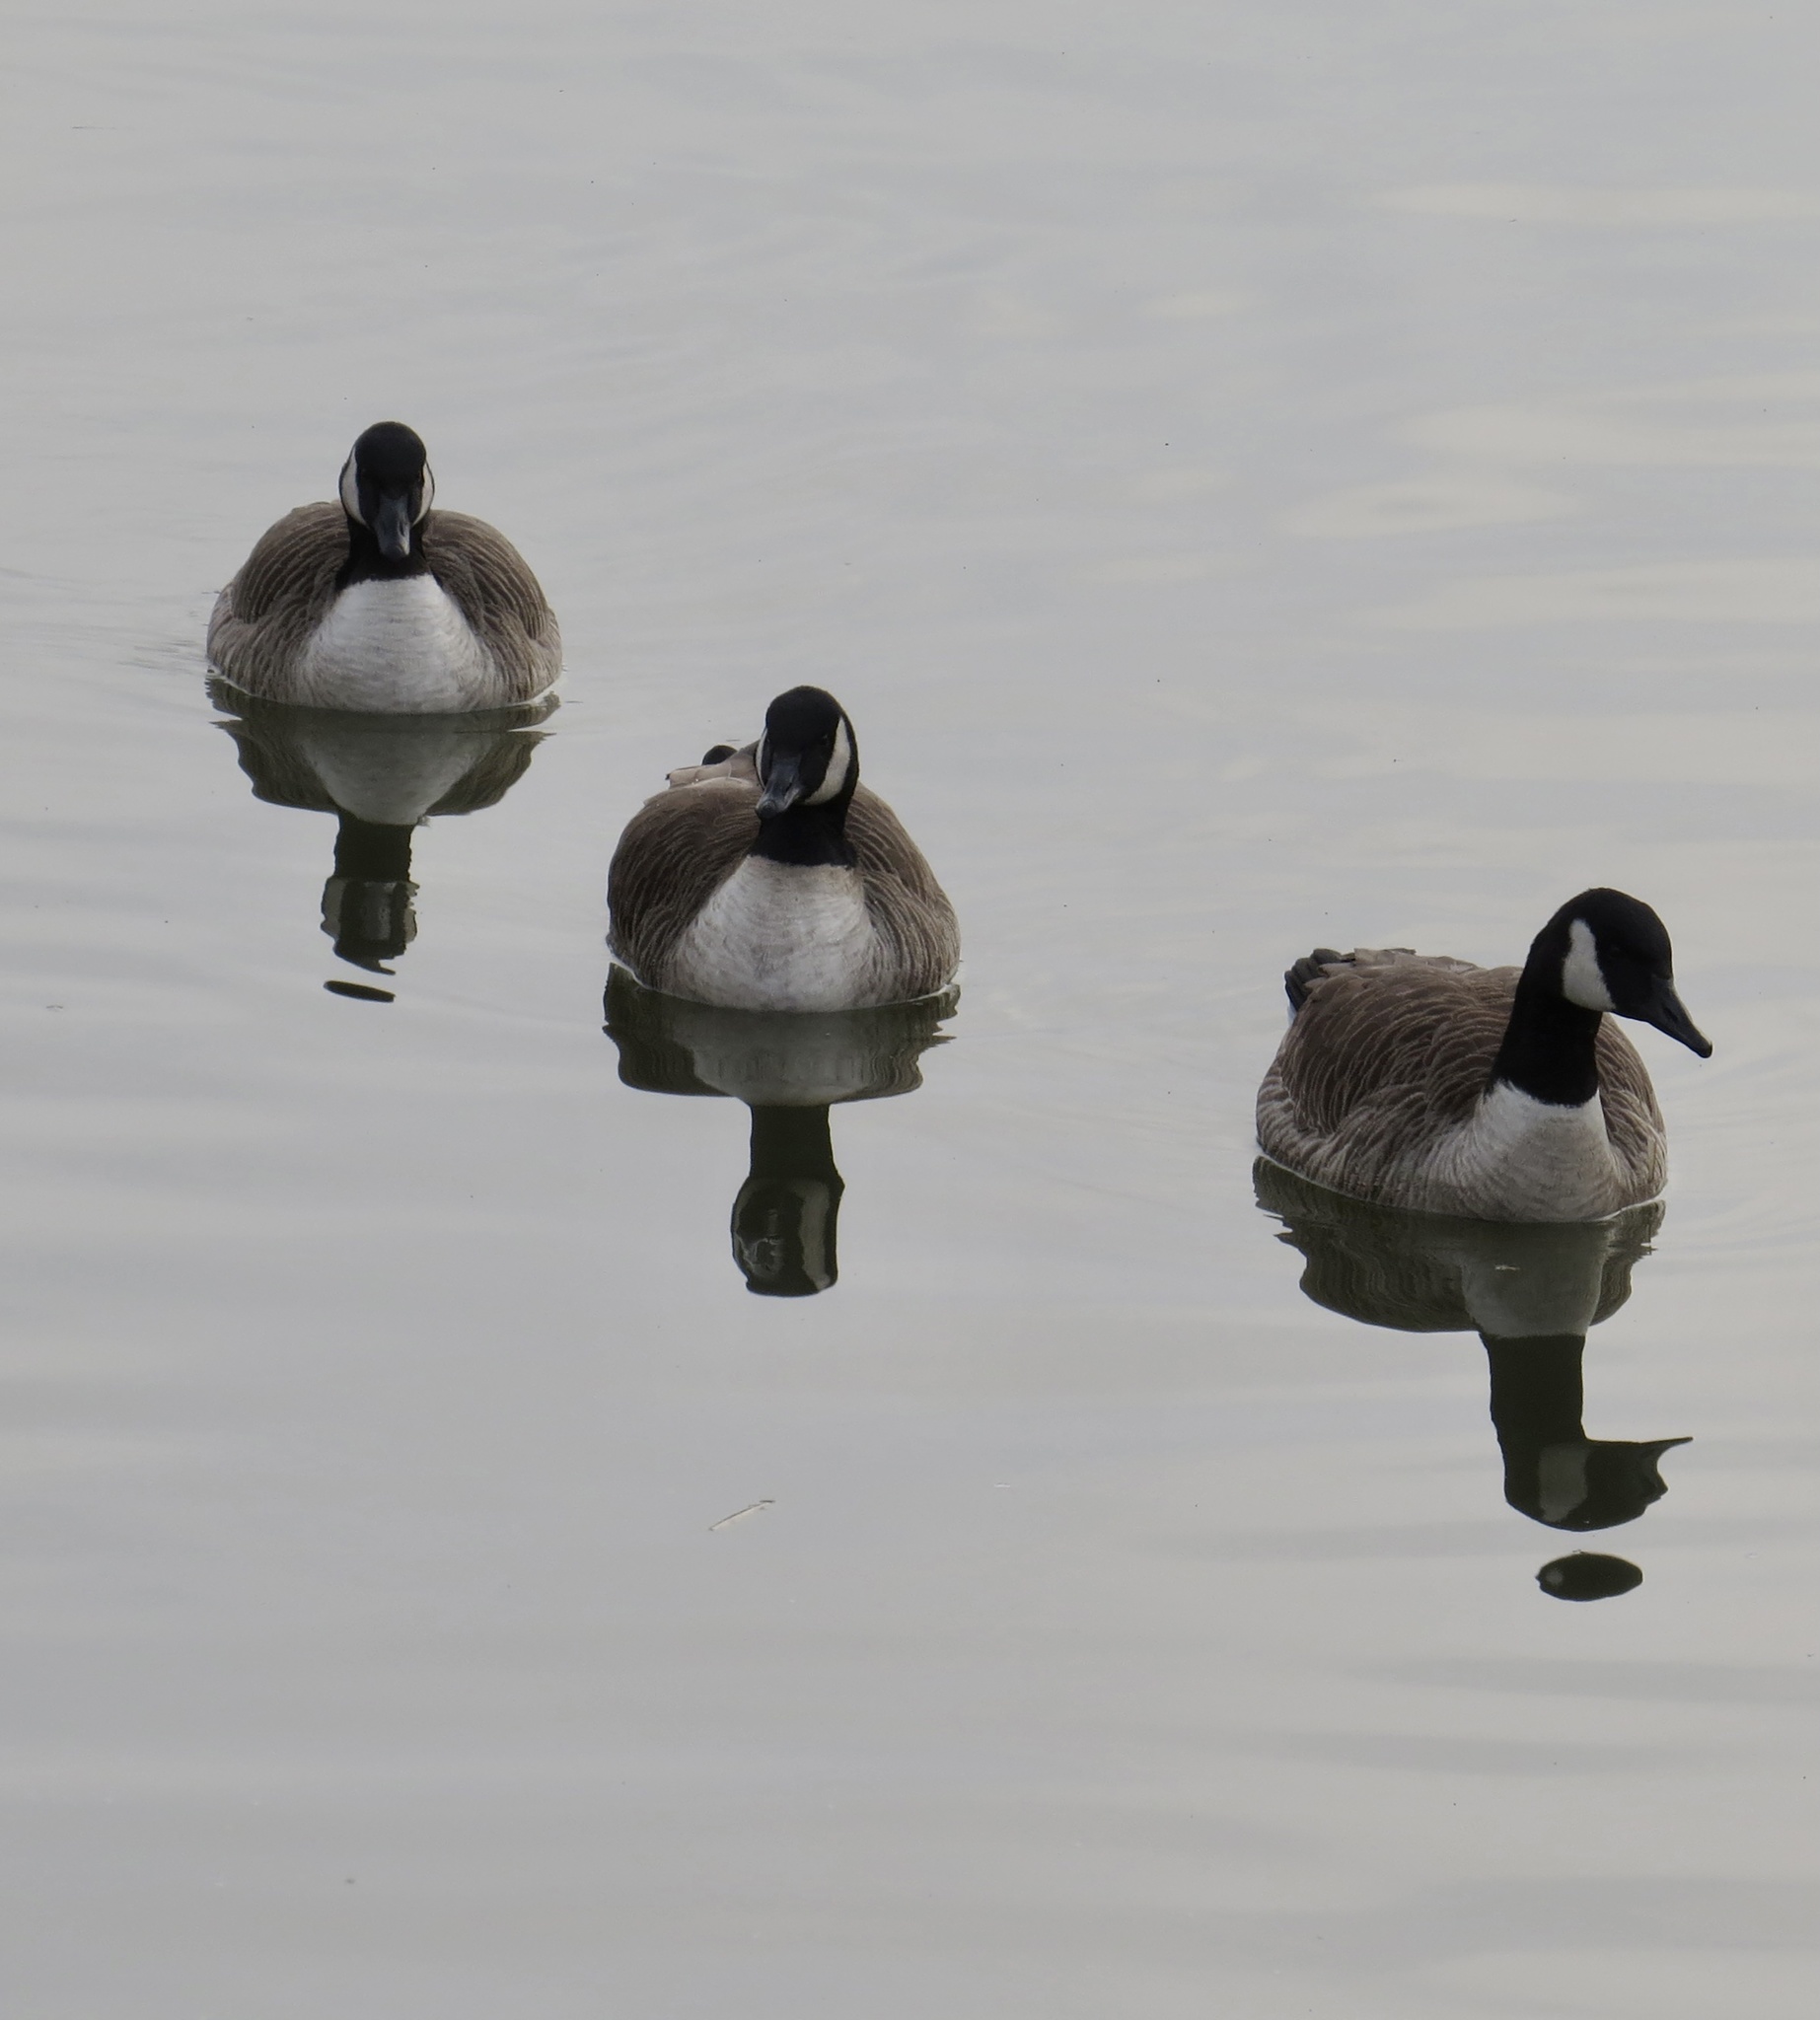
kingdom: Animalia
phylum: Chordata
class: Aves
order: Anseriformes
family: Anatidae
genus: Branta
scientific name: Branta canadensis
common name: Canada goose
